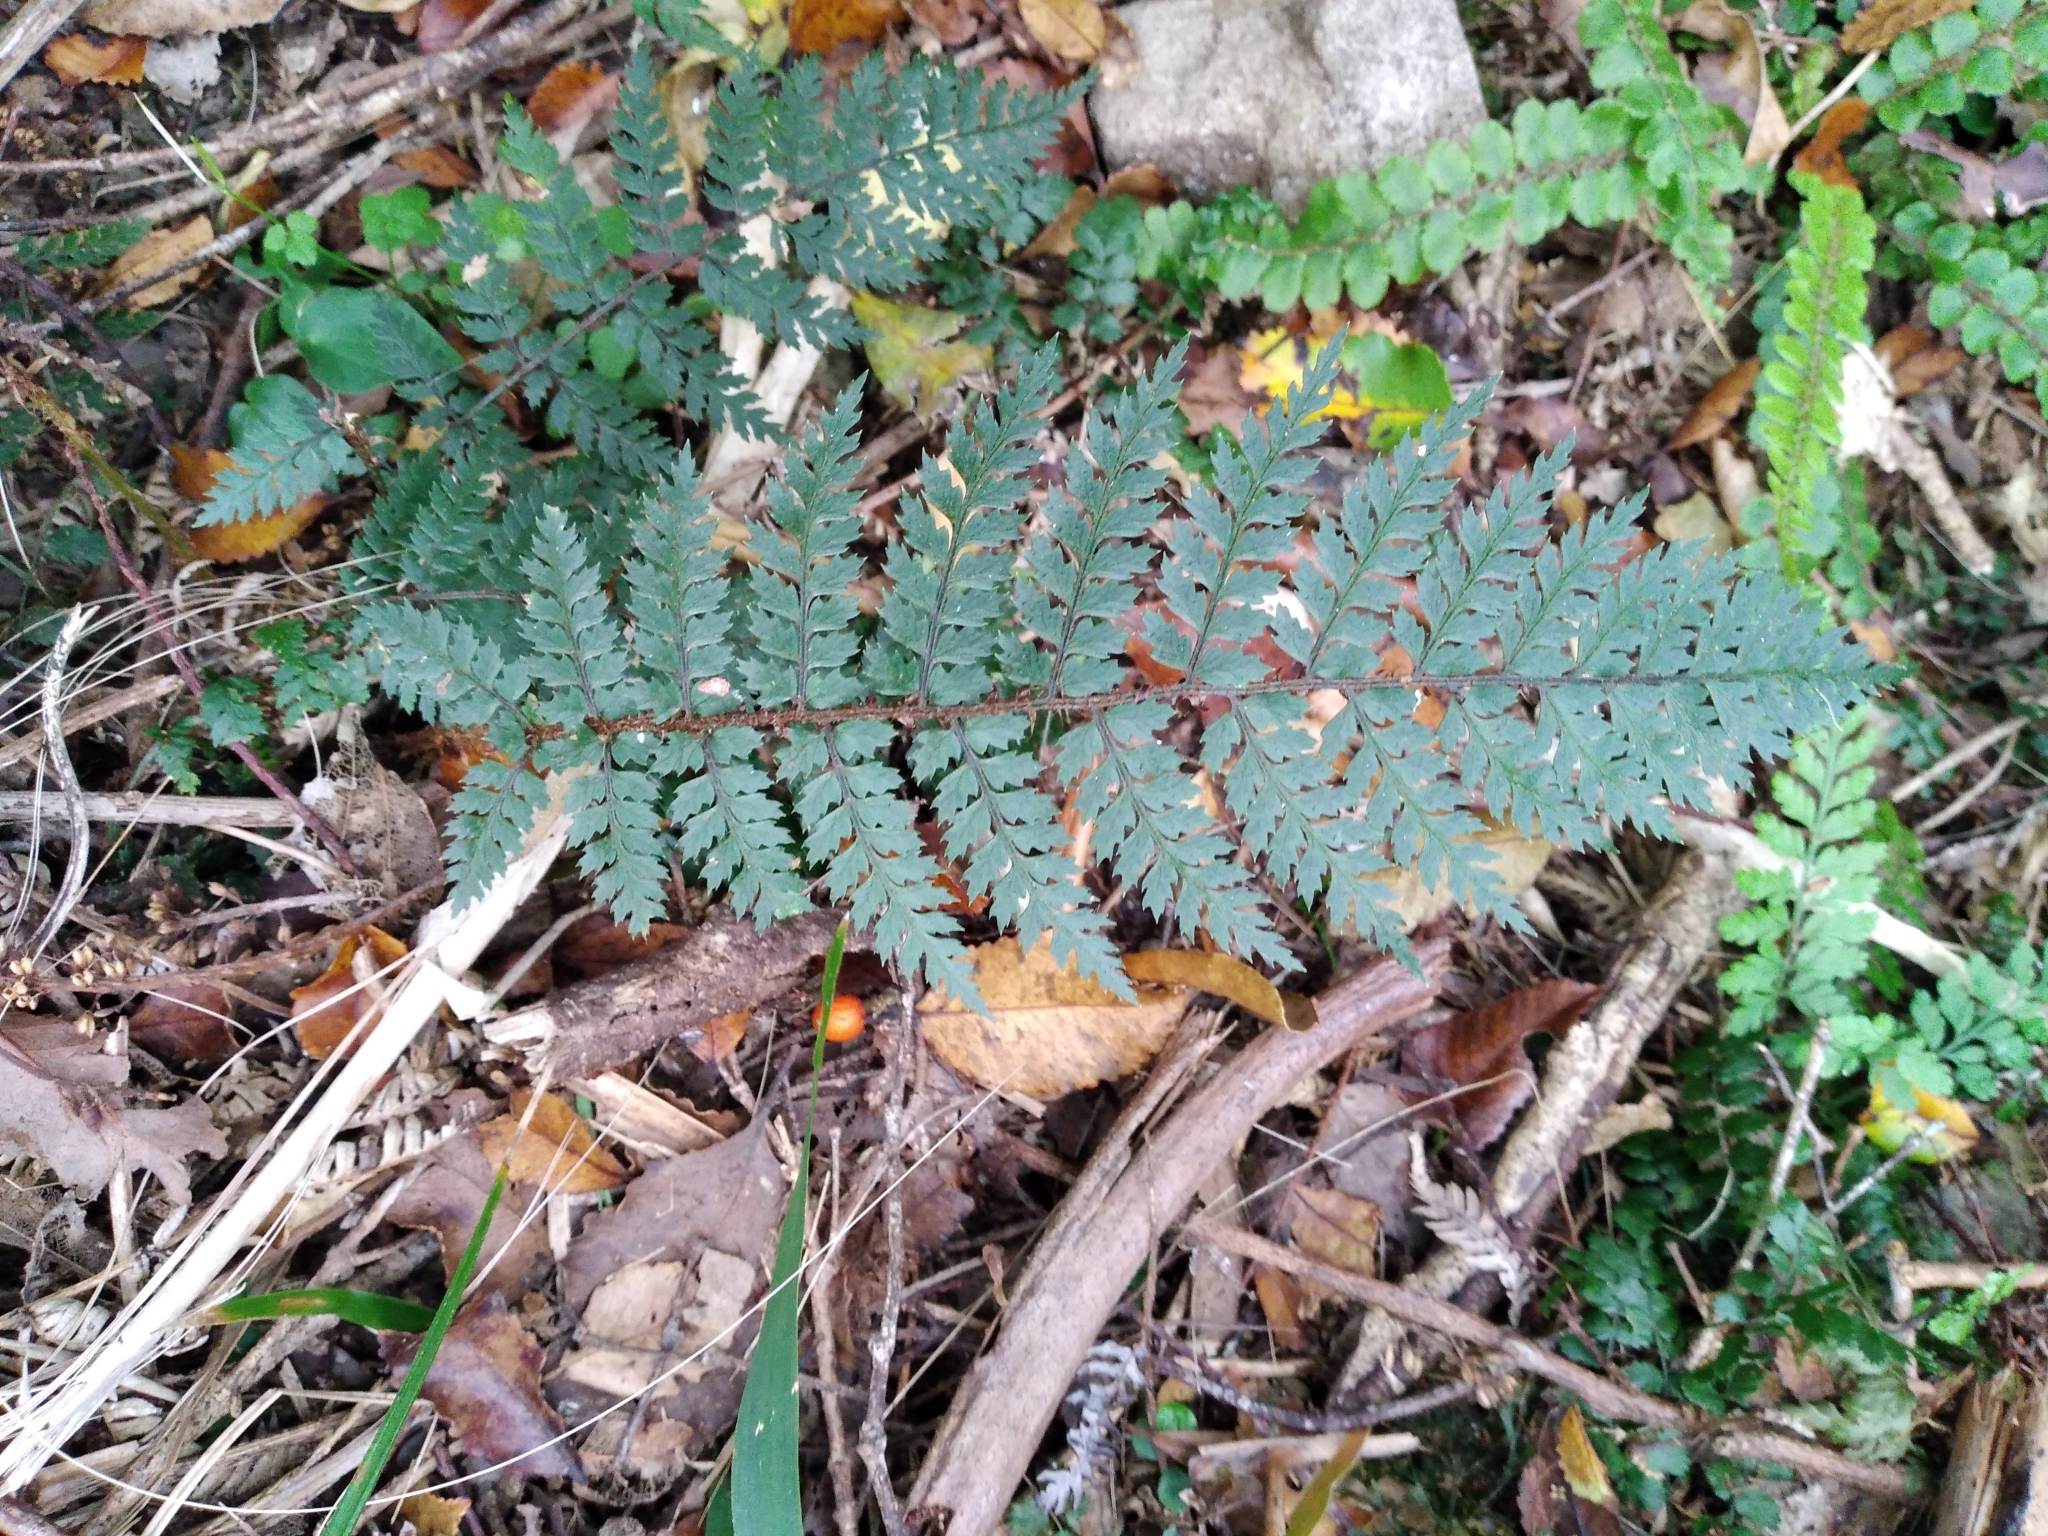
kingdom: Plantae
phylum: Tracheophyta
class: Polypodiopsida
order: Polypodiales
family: Dryopteridaceae
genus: Polystichum
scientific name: Polystichum silvaticum
